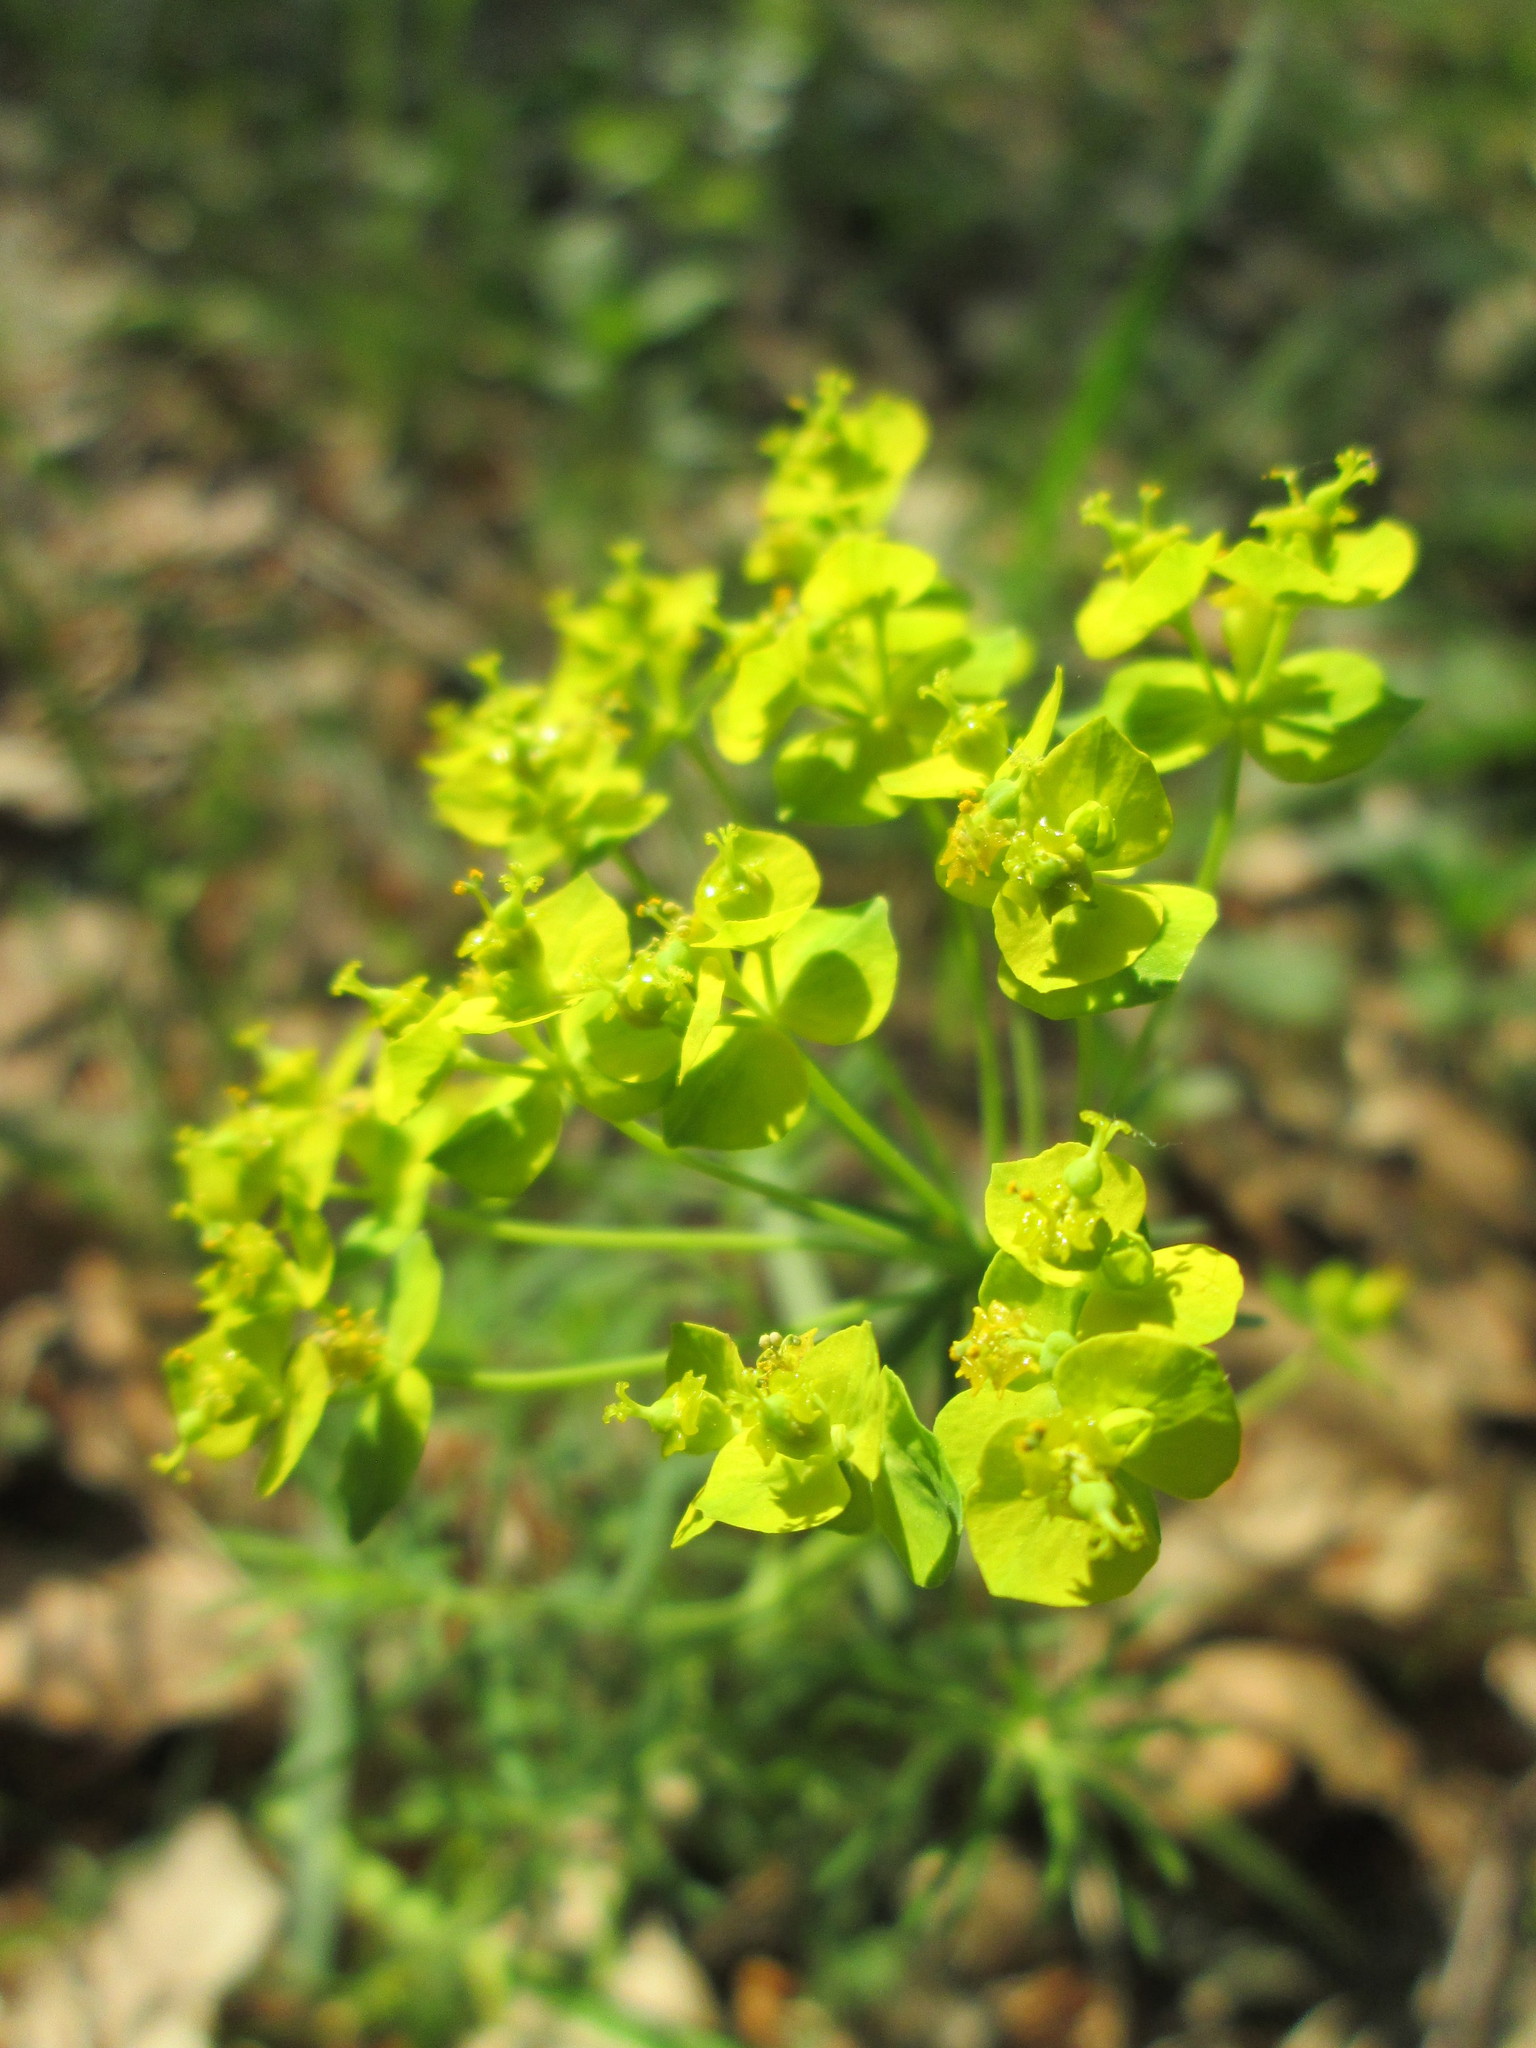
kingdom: Plantae
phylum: Tracheophyta
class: Magnoliopsida
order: Malpighiales
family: Euphorbiaceae
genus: Euphorbia
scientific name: Euphorbia cyparissias
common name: Cypress spurge
